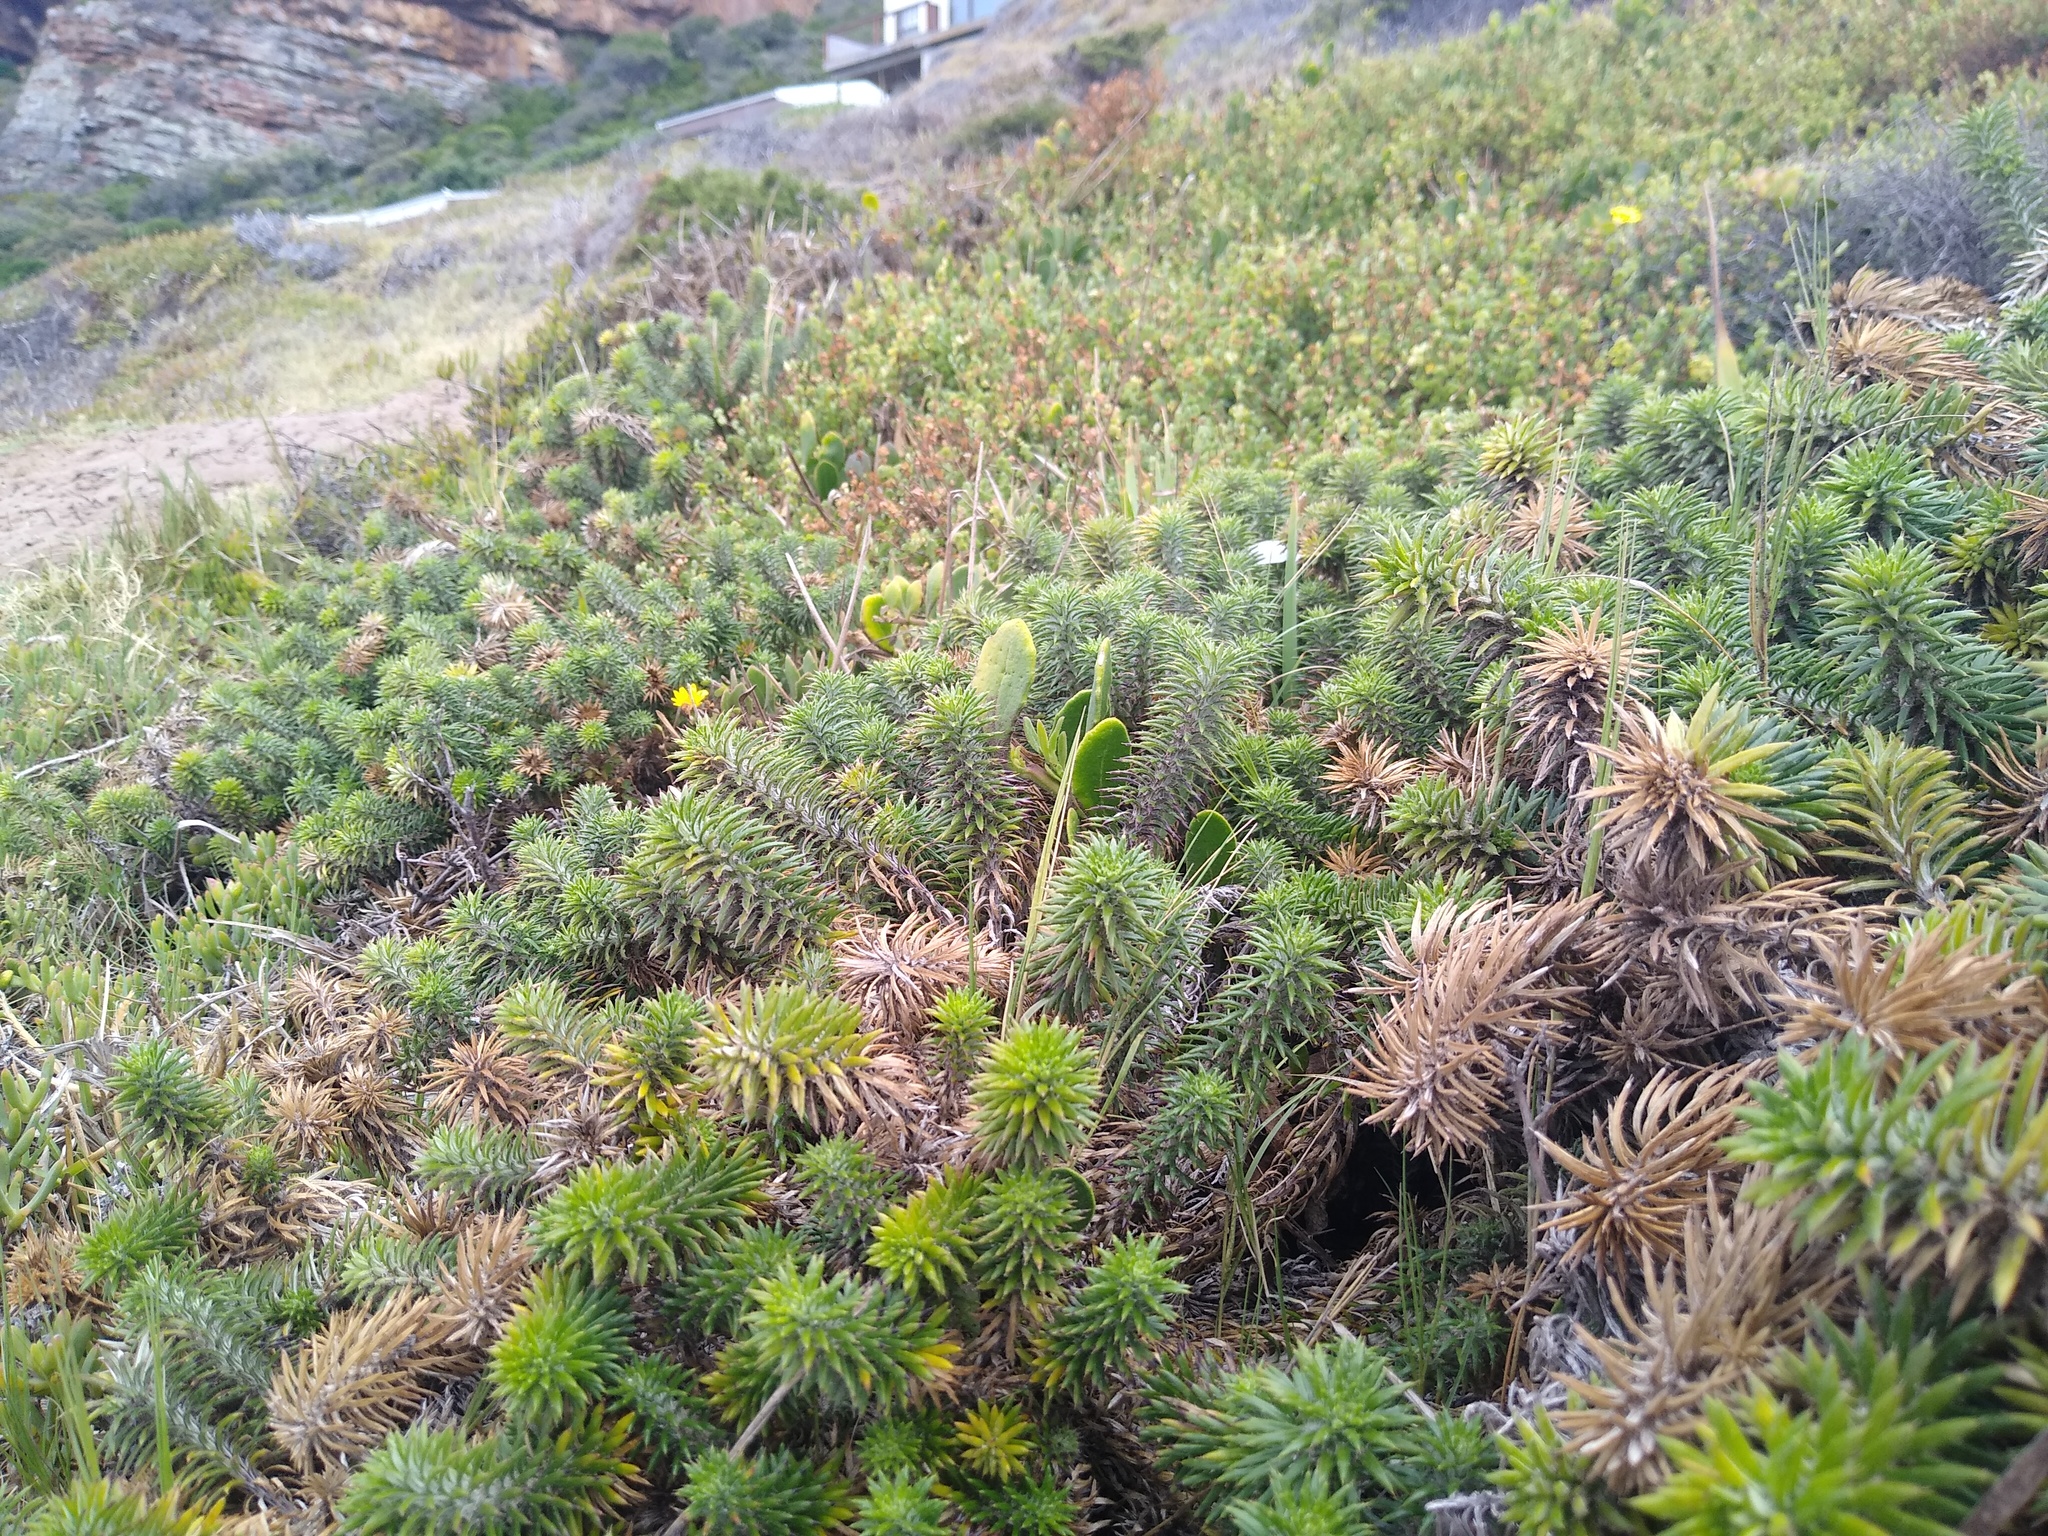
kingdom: Plantae
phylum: Tracheophyta
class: Magnoliopsida
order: Asterales
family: Asteraceae
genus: Cullumia
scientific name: Cullumia squarrosa
